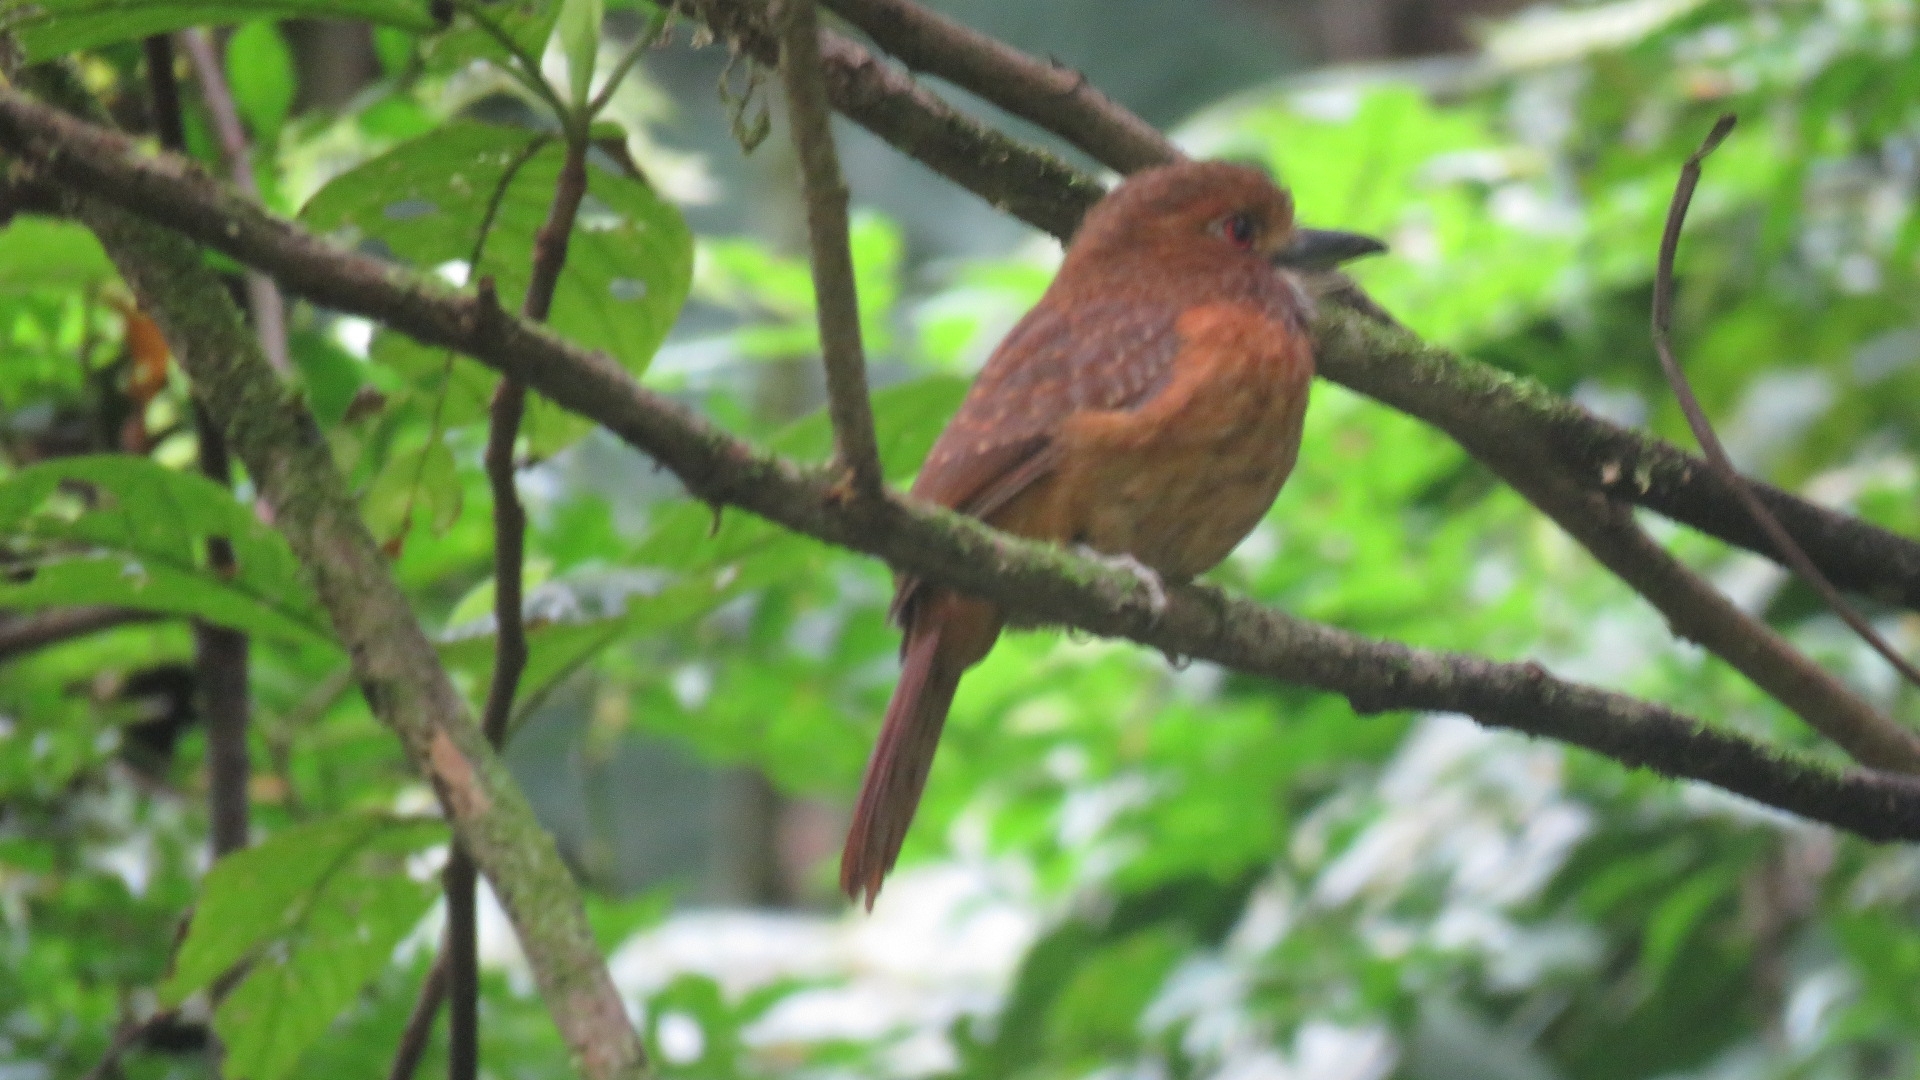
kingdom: Animalia
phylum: Chordata
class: Aves
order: Piciformes
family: Bucconidae
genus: Malacoptila
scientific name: Malacoptila panamensis
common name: White-whiskered puffbird
